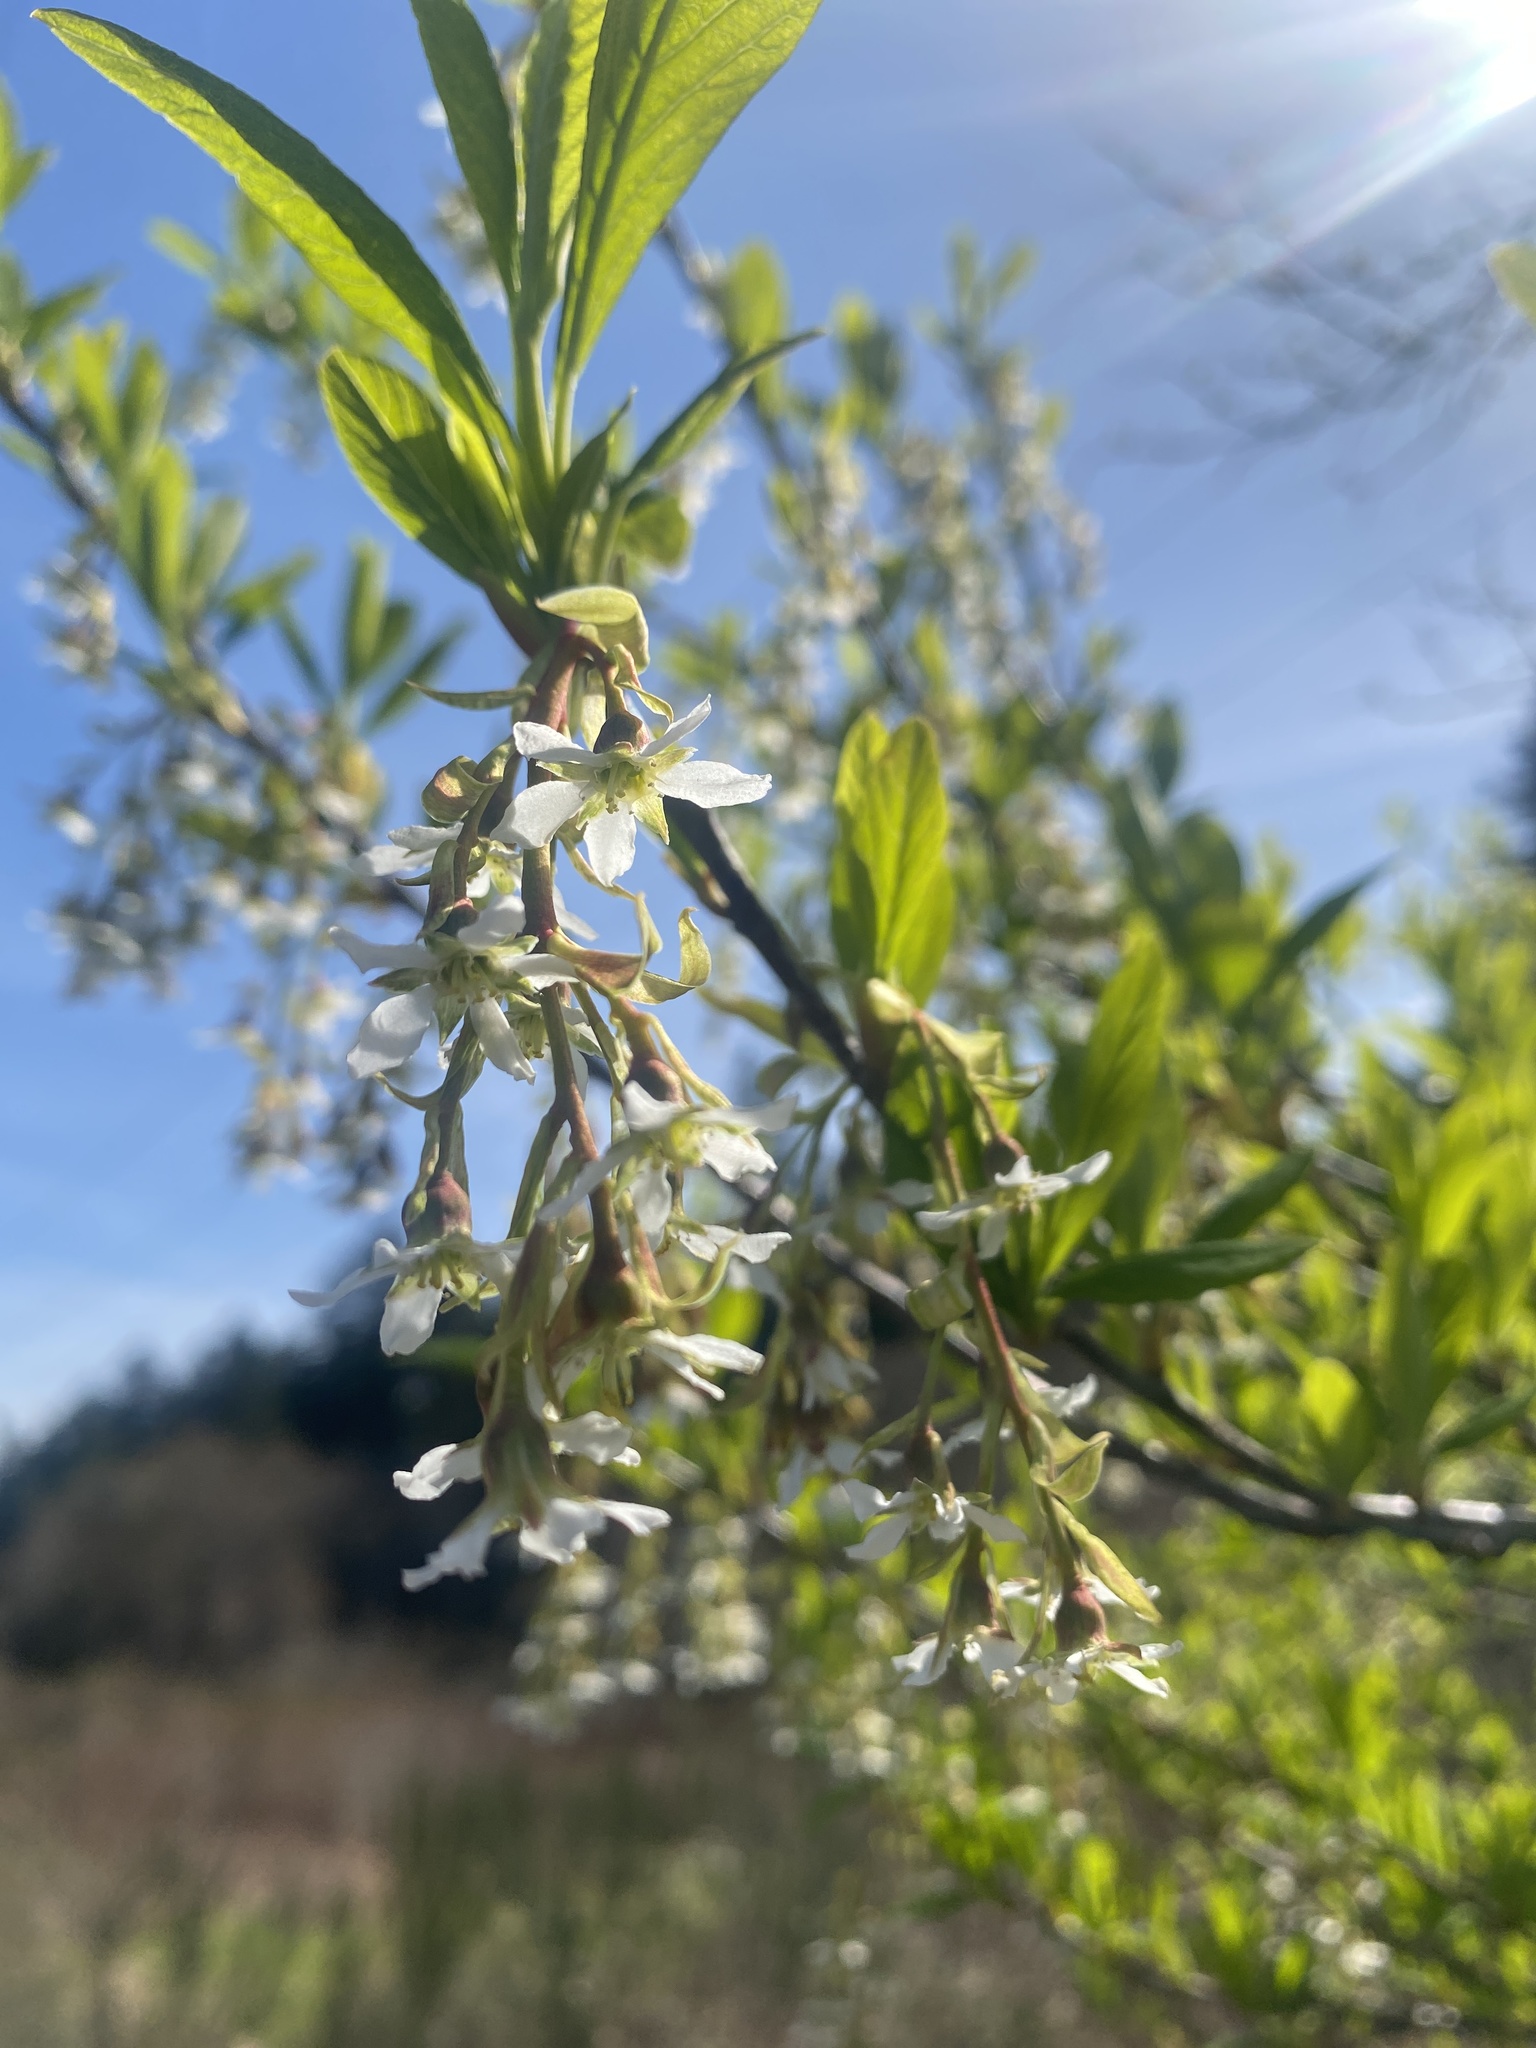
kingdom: Plantae
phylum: Tracheophyta
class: Magnoliopsida
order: Rosales
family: Rosaceae
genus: Oemleria
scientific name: Oemleria cerasiformis
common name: Osoberry
